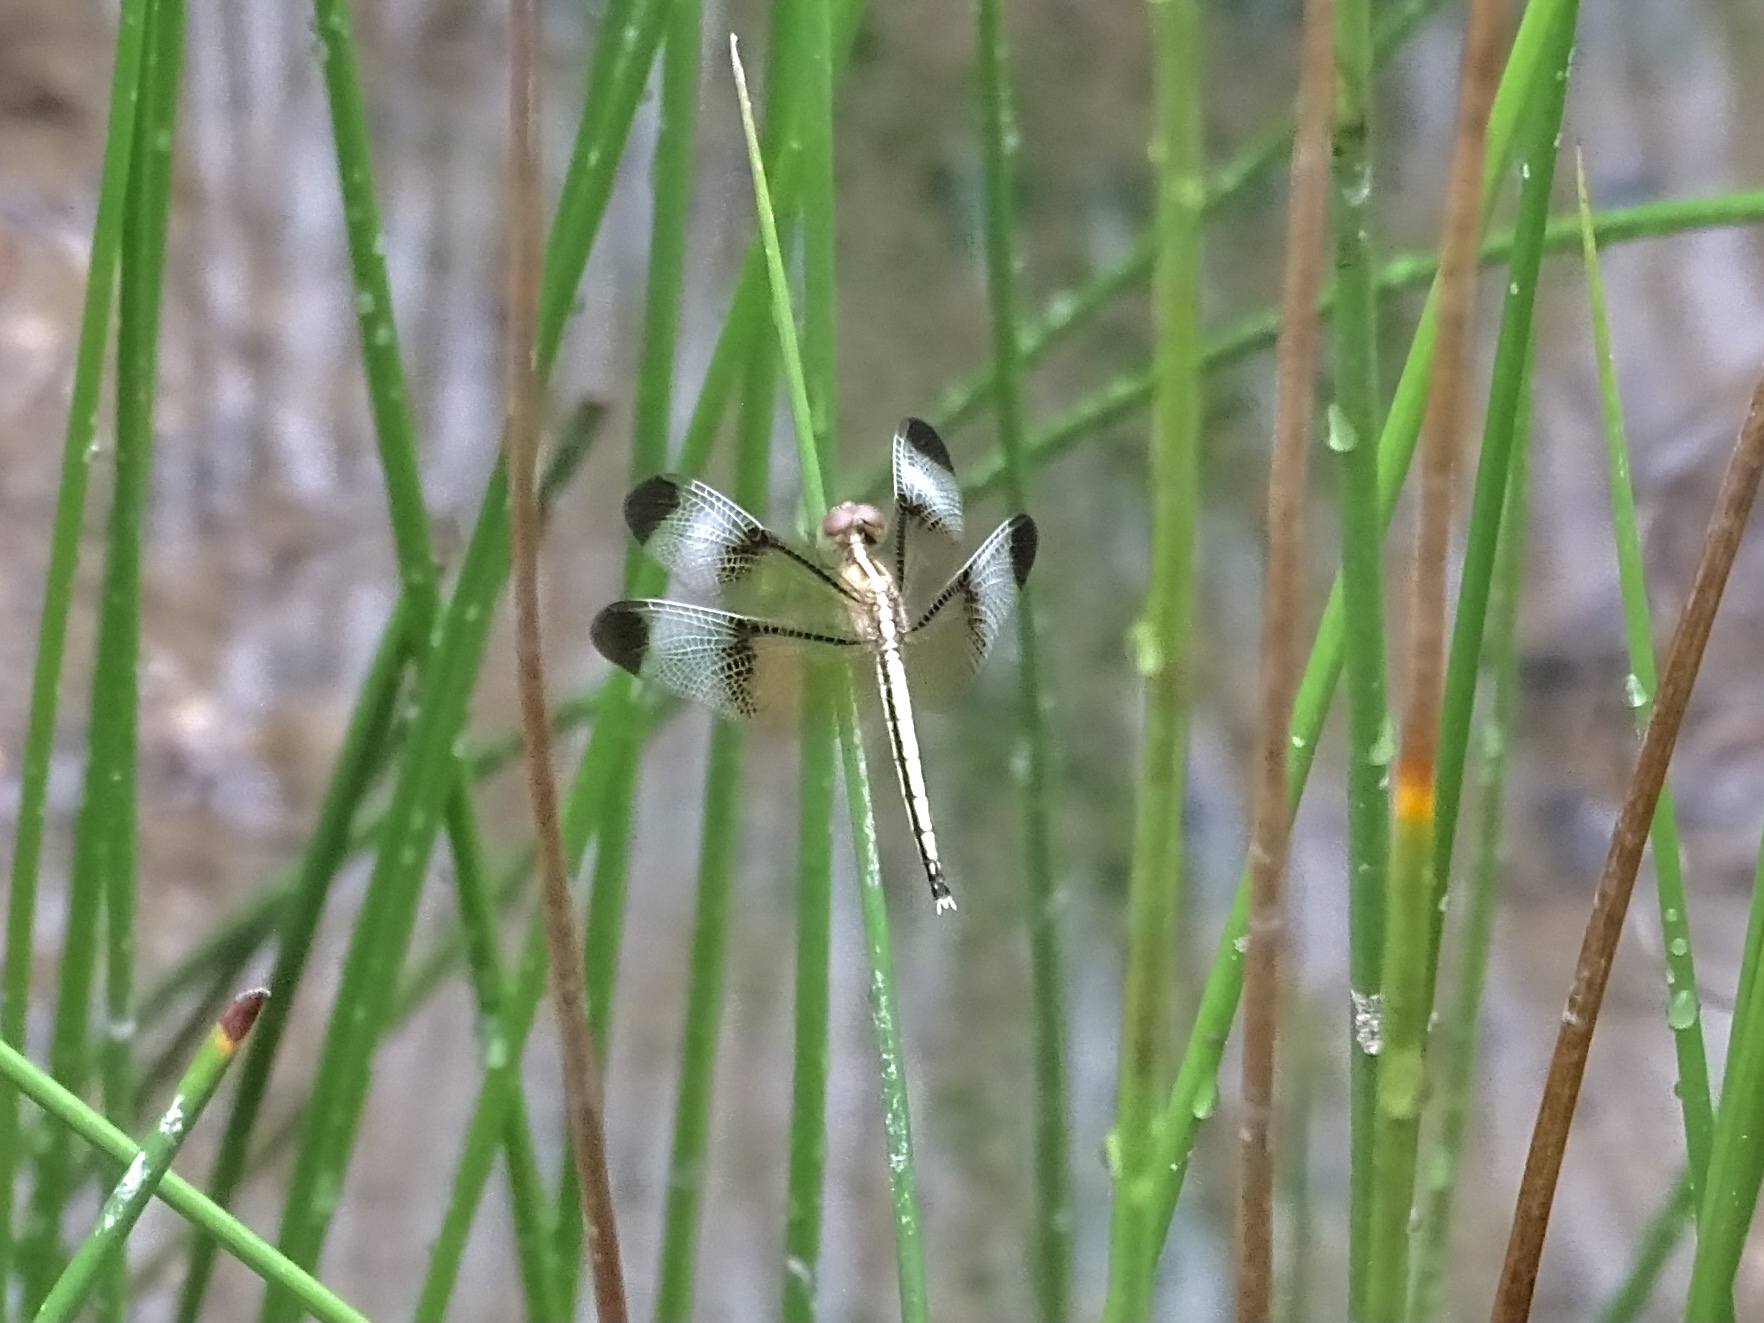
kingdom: Animalia
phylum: Arthropoda
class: Insecta
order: Odonata
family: Libellulidae
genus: Neurothemis
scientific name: Neurothemis tullia
